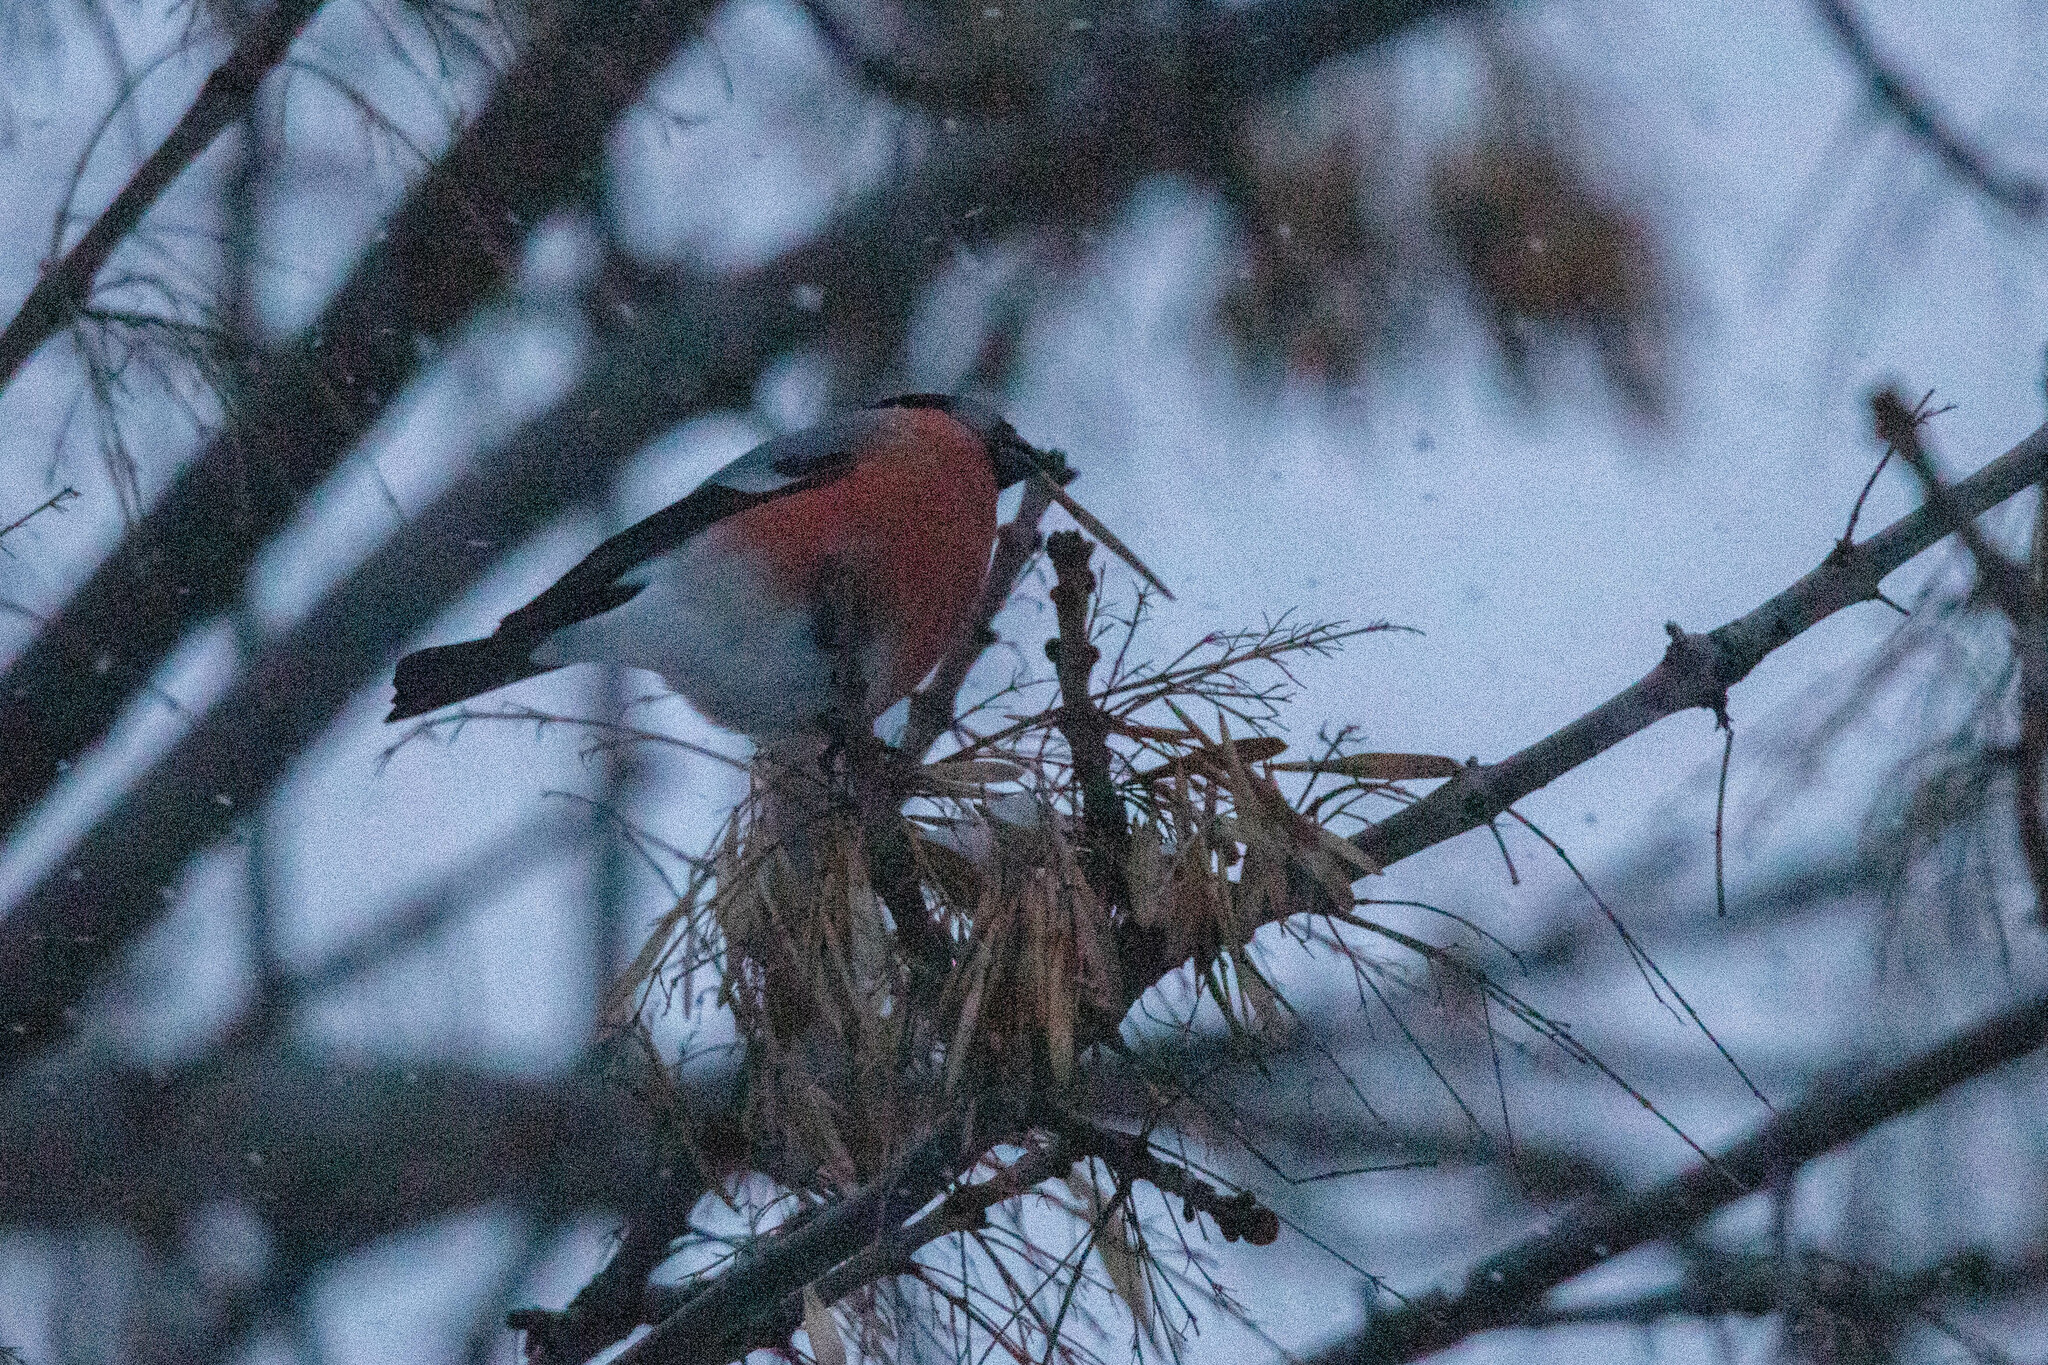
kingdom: Animalia
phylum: Chordata
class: Aves
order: Passeriformes
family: Fringillidae
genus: Pyrrhula
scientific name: Pyrrhula pyrrhula
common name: Eurasian bullfinch
